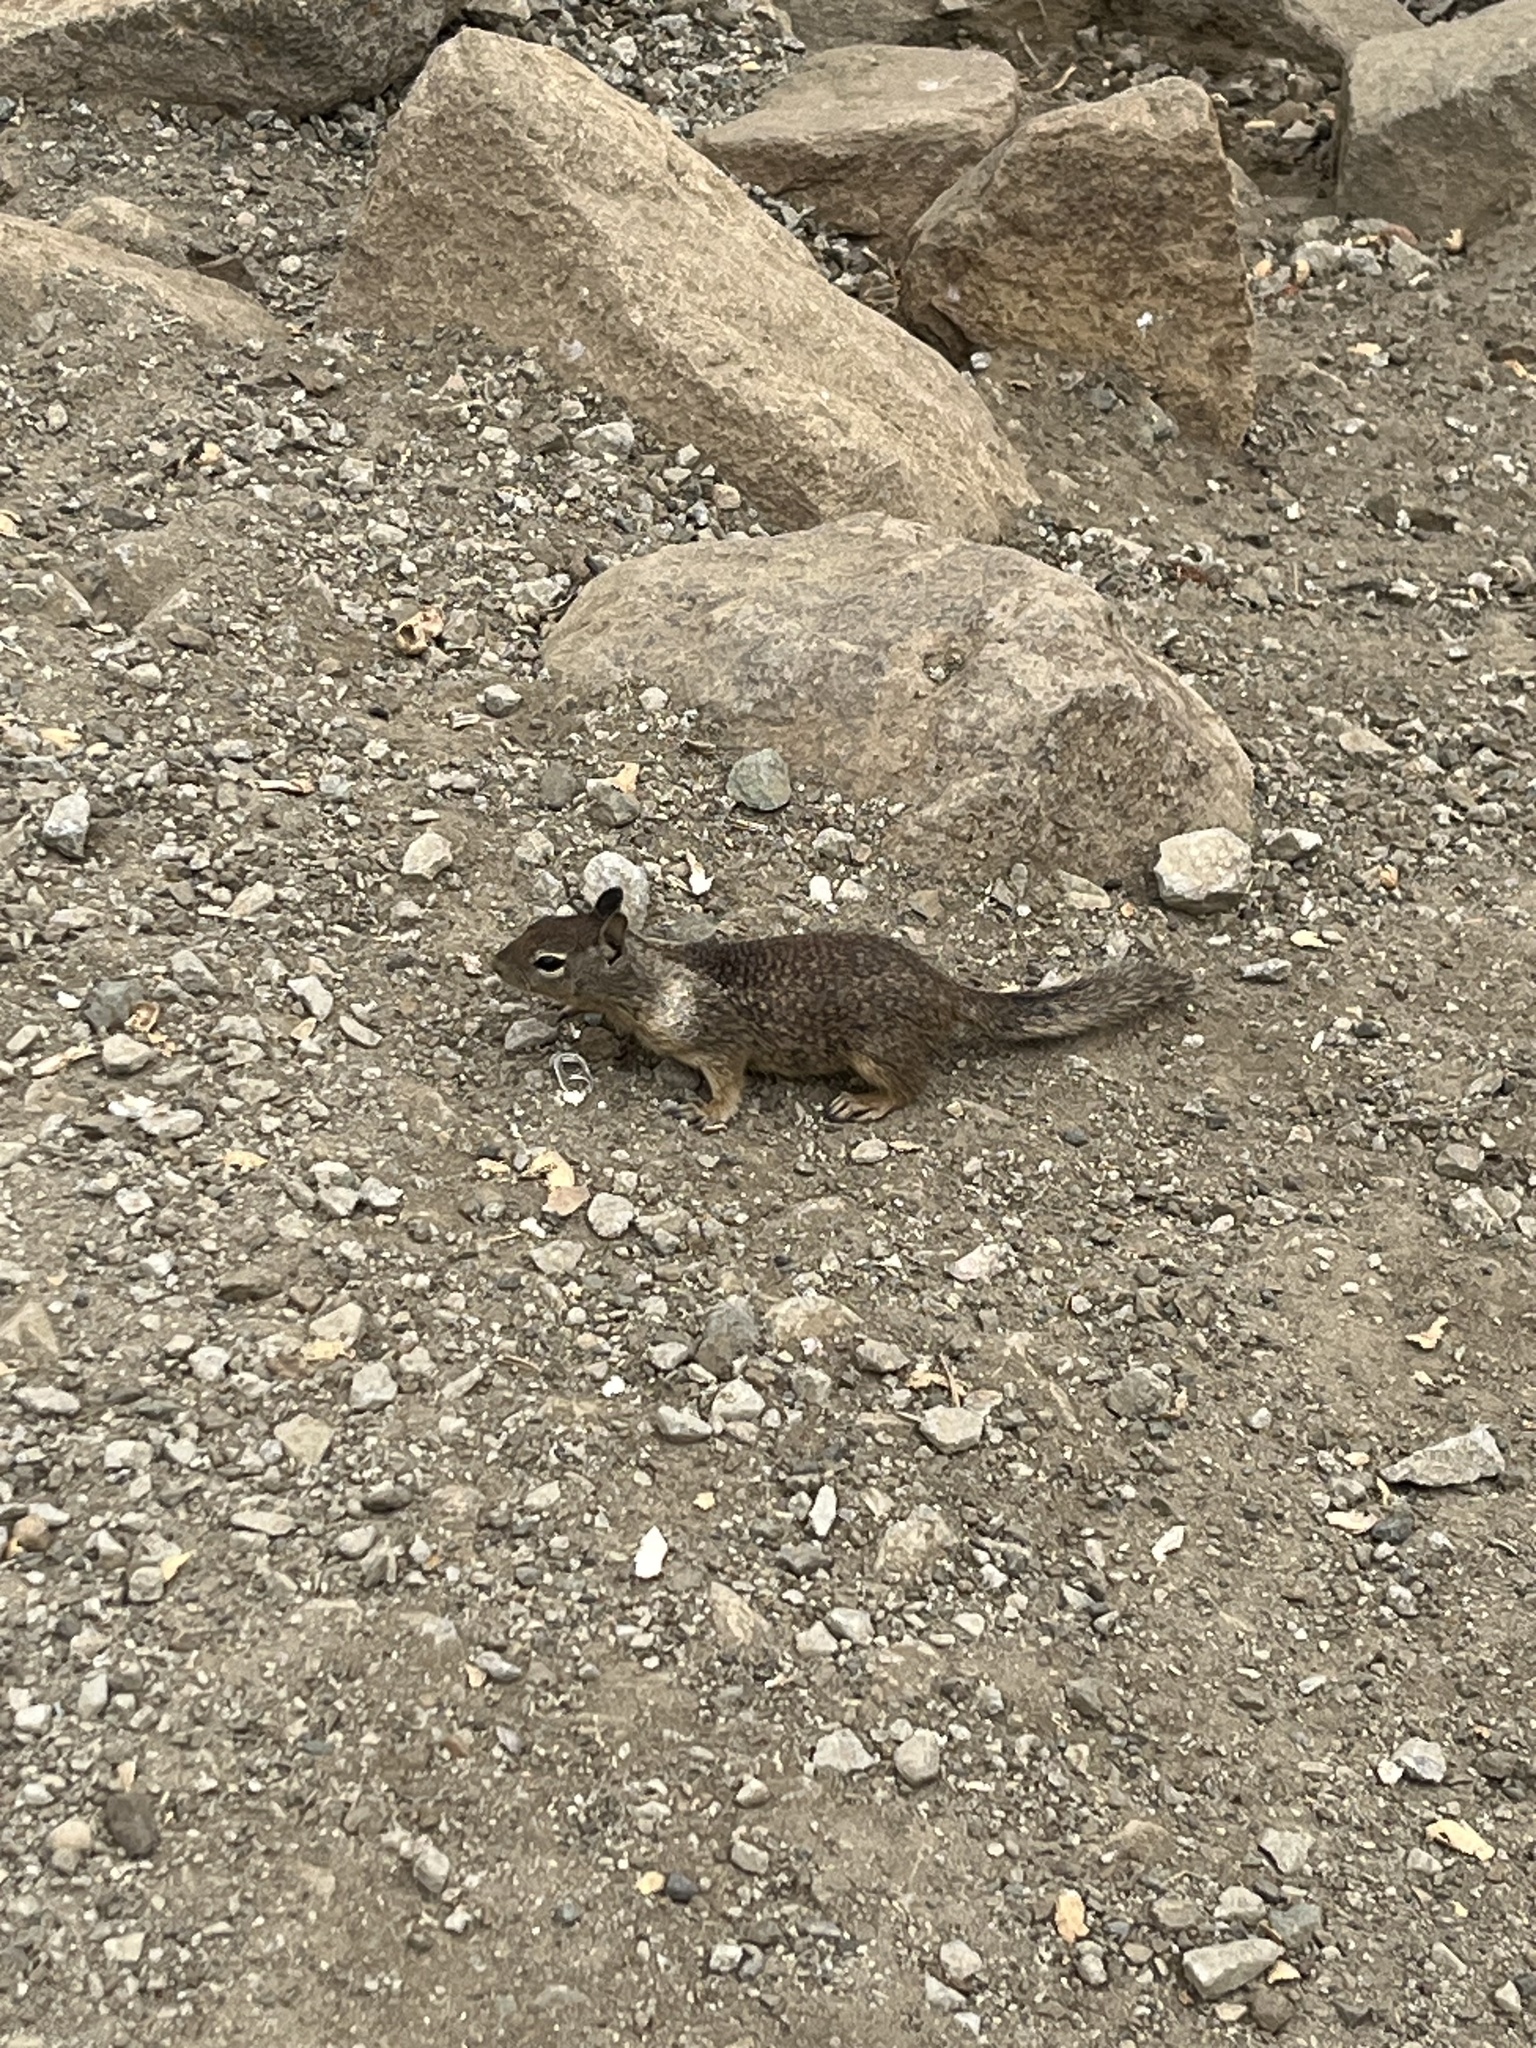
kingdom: Animalia
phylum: Chordata
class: Mammalia
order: Rodentia
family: Sciuridae
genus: Otospermophilus
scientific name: Otospermophilus beecheyi
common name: California ground squirrel
